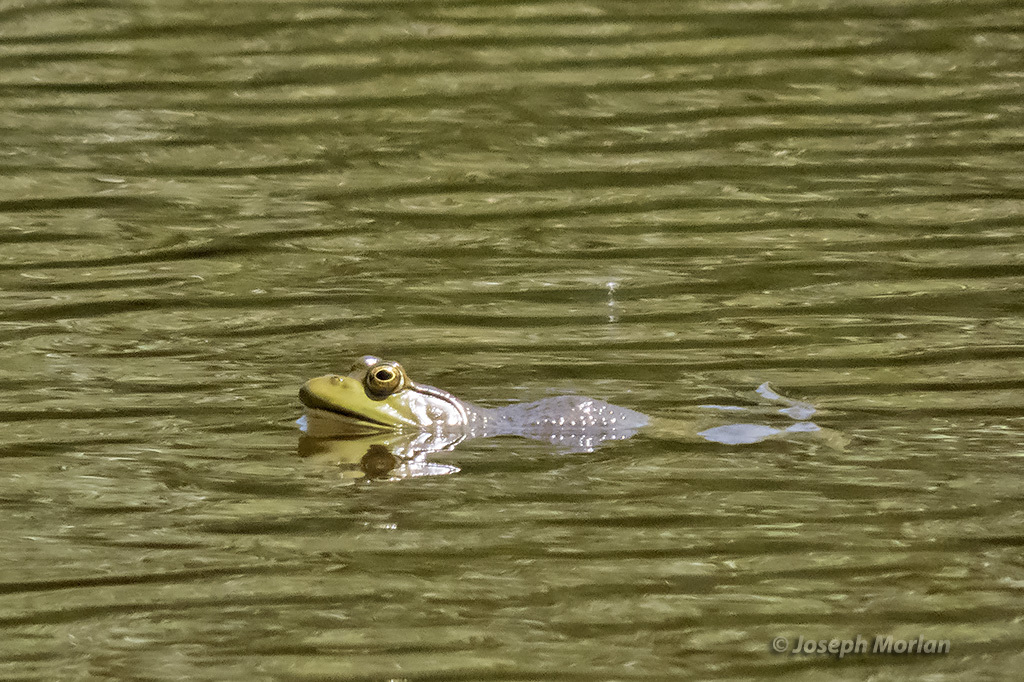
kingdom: Animalia
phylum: Chordata
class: Amphibia
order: Anura
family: Ranidae
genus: Lithobates
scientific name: Lithobates catesbeianus
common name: American bullfrog
